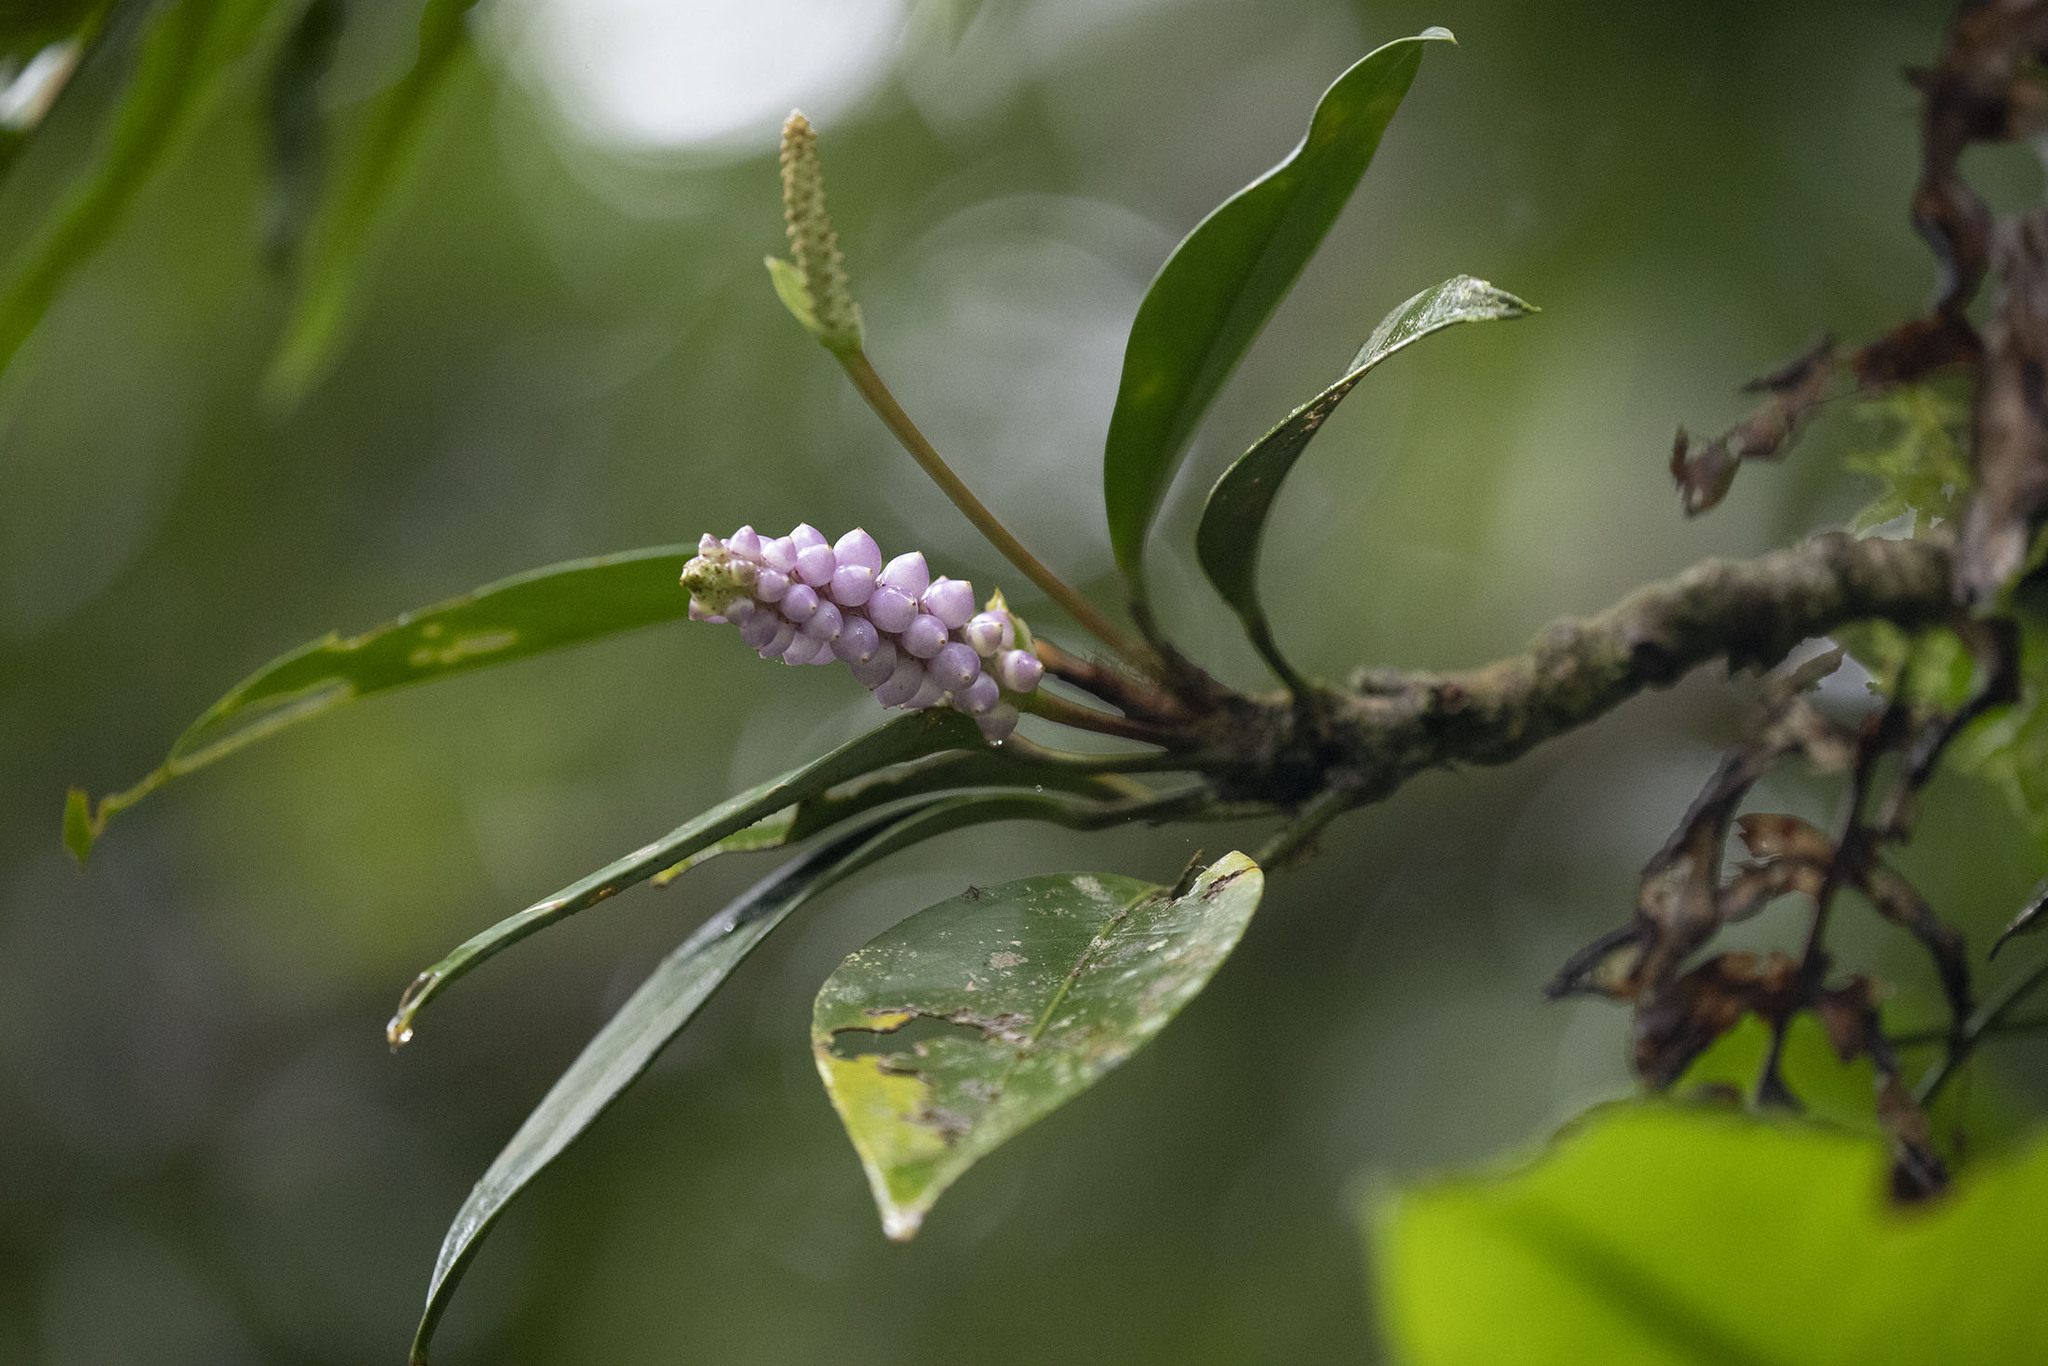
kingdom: Plantae
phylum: Tracheophyta
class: Liliopsida
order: Alismatales
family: Araceae
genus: Anthurium
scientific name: Anthurium scandens
